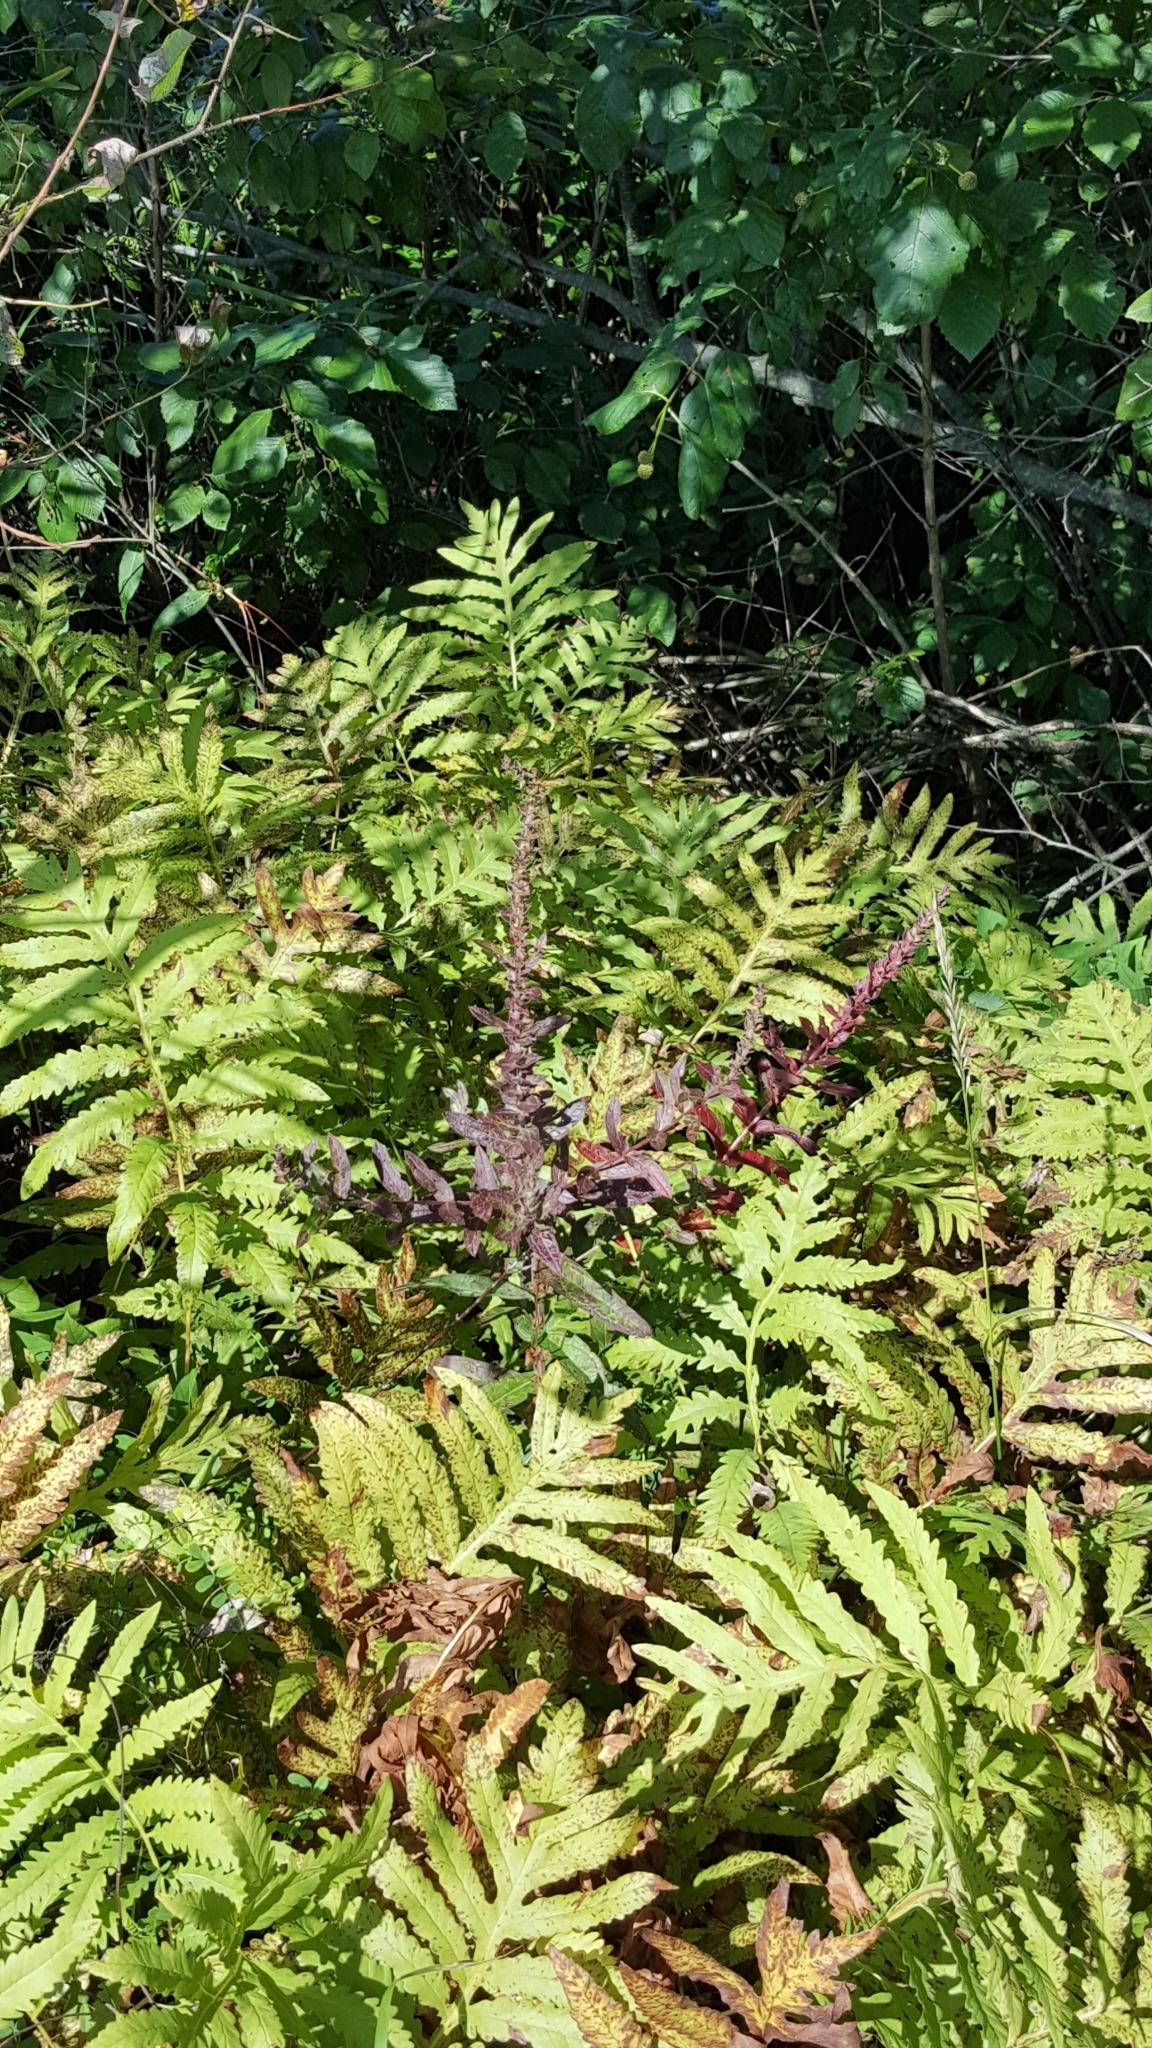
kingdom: Plantae
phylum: Tracheophyta
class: Magnoliopsida
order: Myrtales
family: Lythraceae
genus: Lythrum
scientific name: Lythrum salicaria
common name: Purple loosestrife
